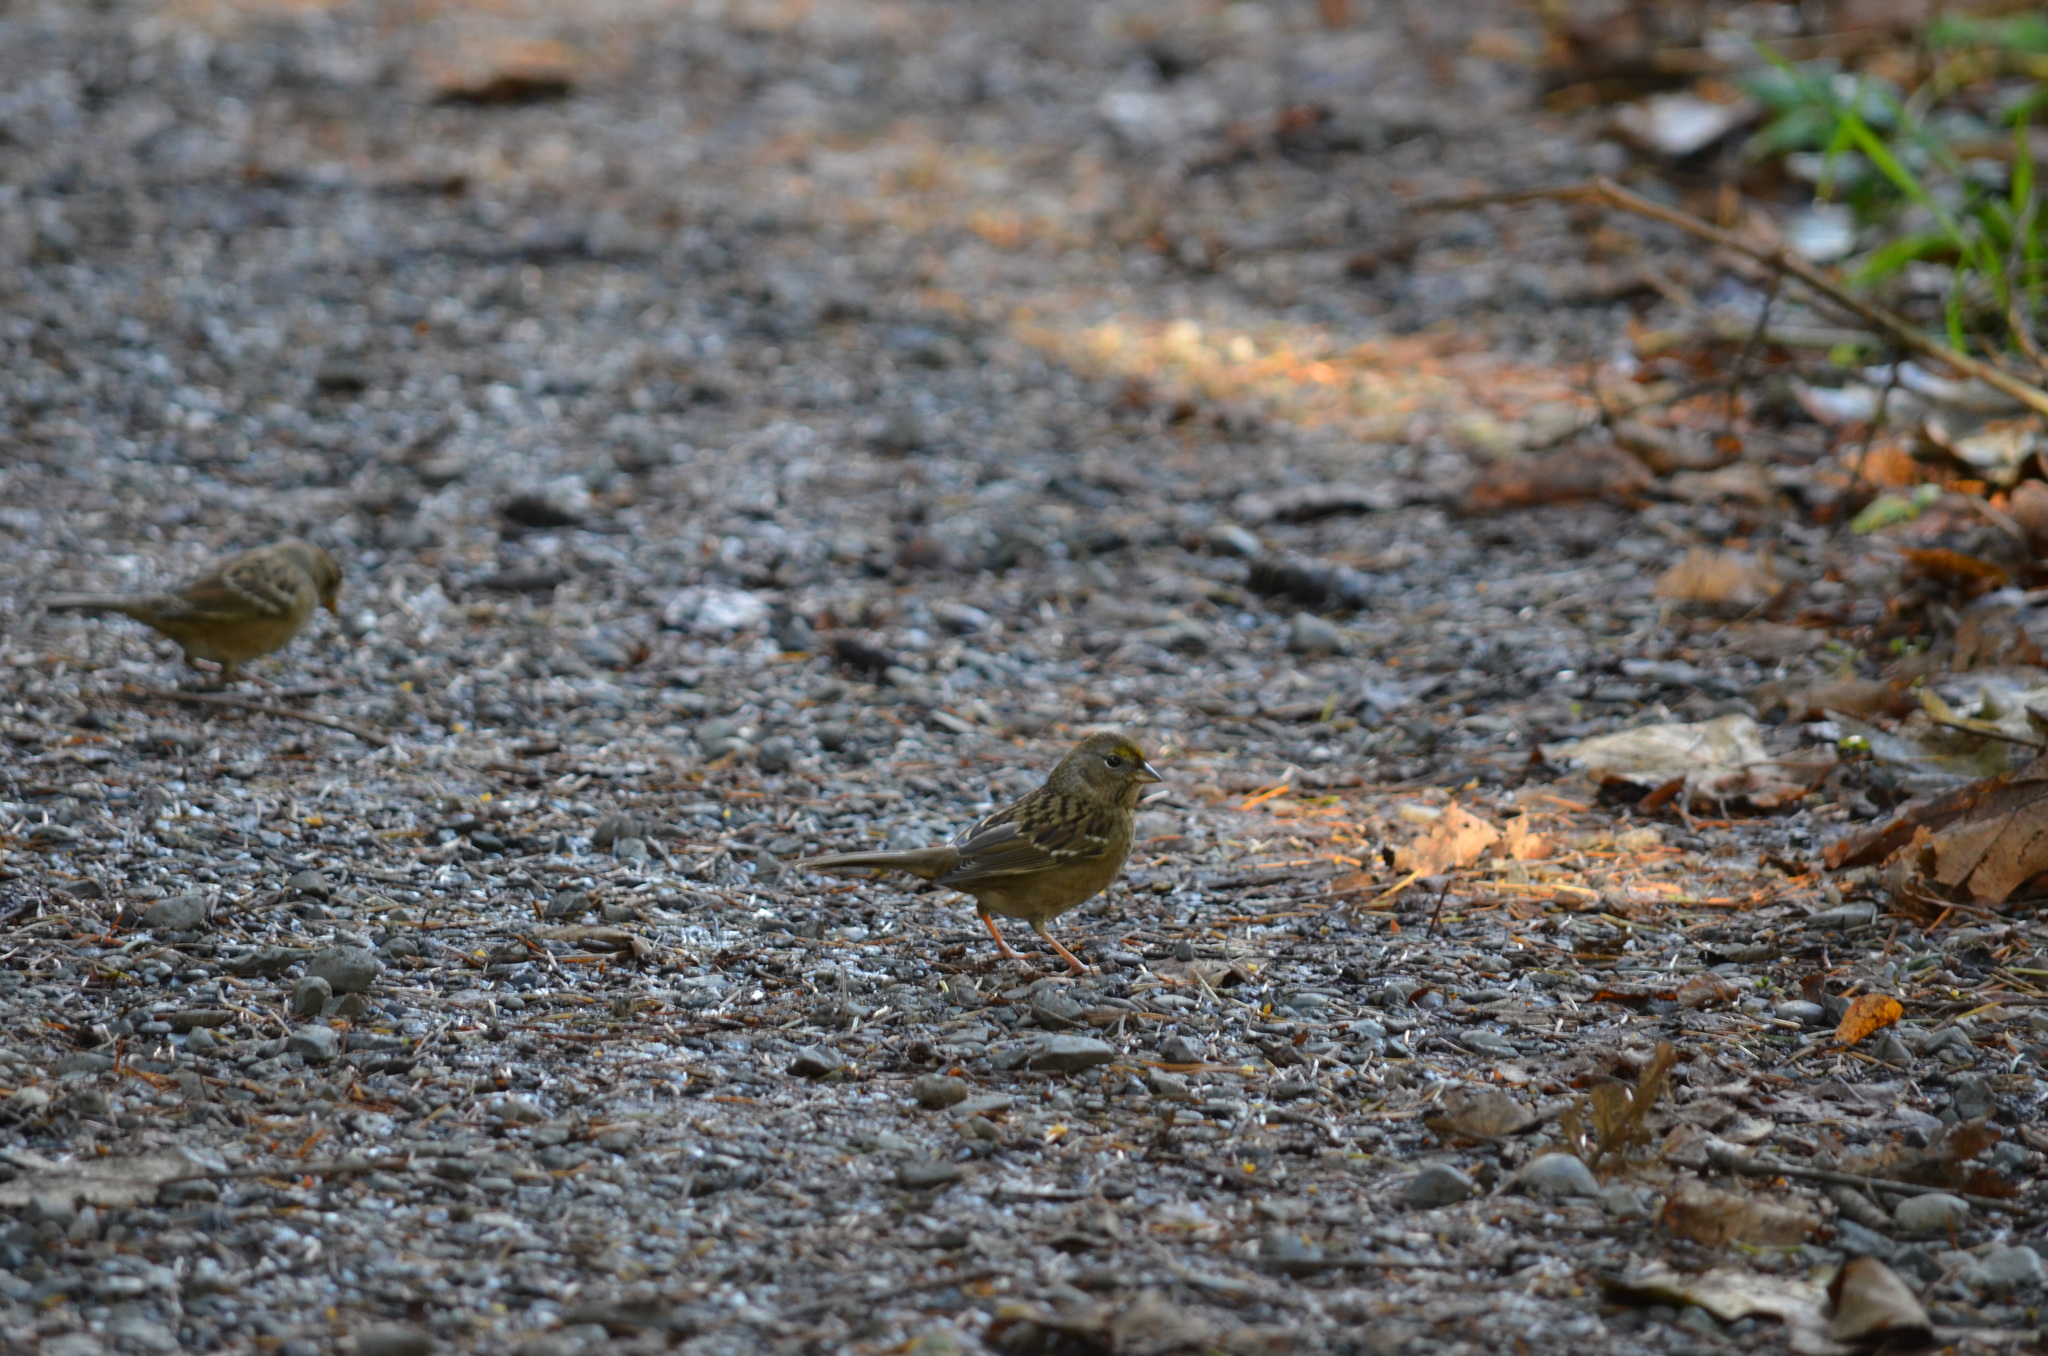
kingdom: Animalia
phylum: Chordata
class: Aves
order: Passeriformes
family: Passerellidae
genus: Zonotrichia
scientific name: Zonotrichia atricapilla
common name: Golden-crowned sparrow
